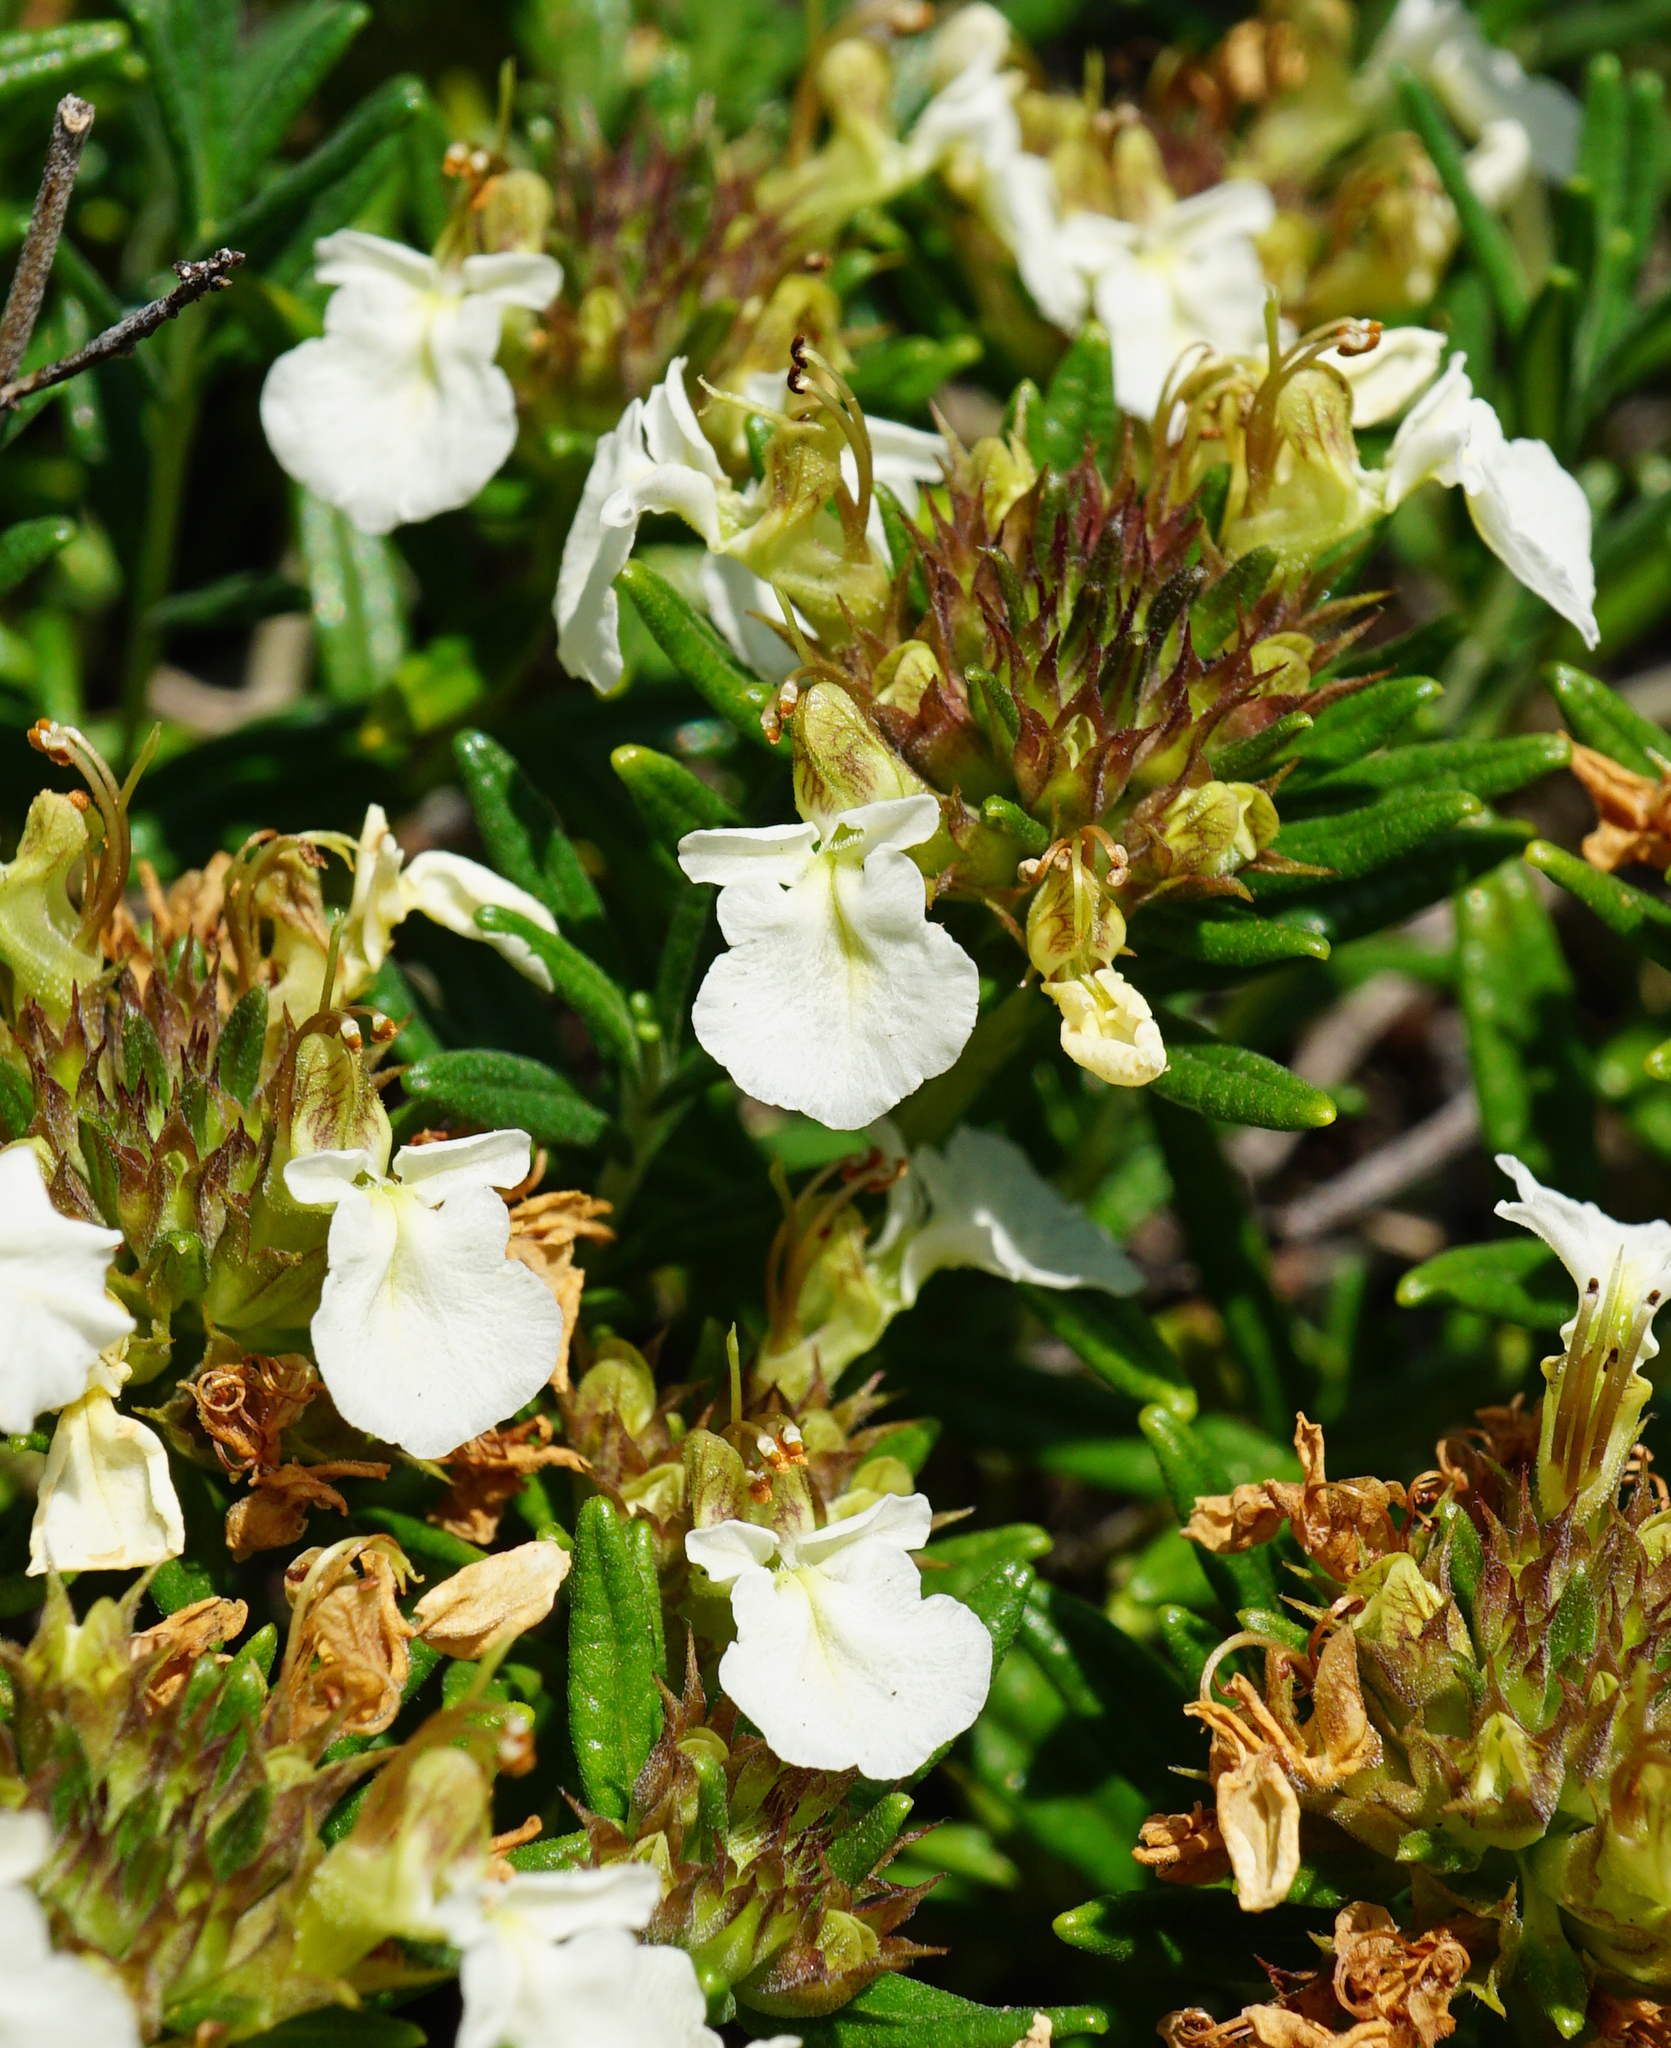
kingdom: Plantae
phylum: Tracheophyta
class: Magnoliopsida
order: Lamiales
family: Lamiaceae
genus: Teucrium
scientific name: Teucrium montanum
